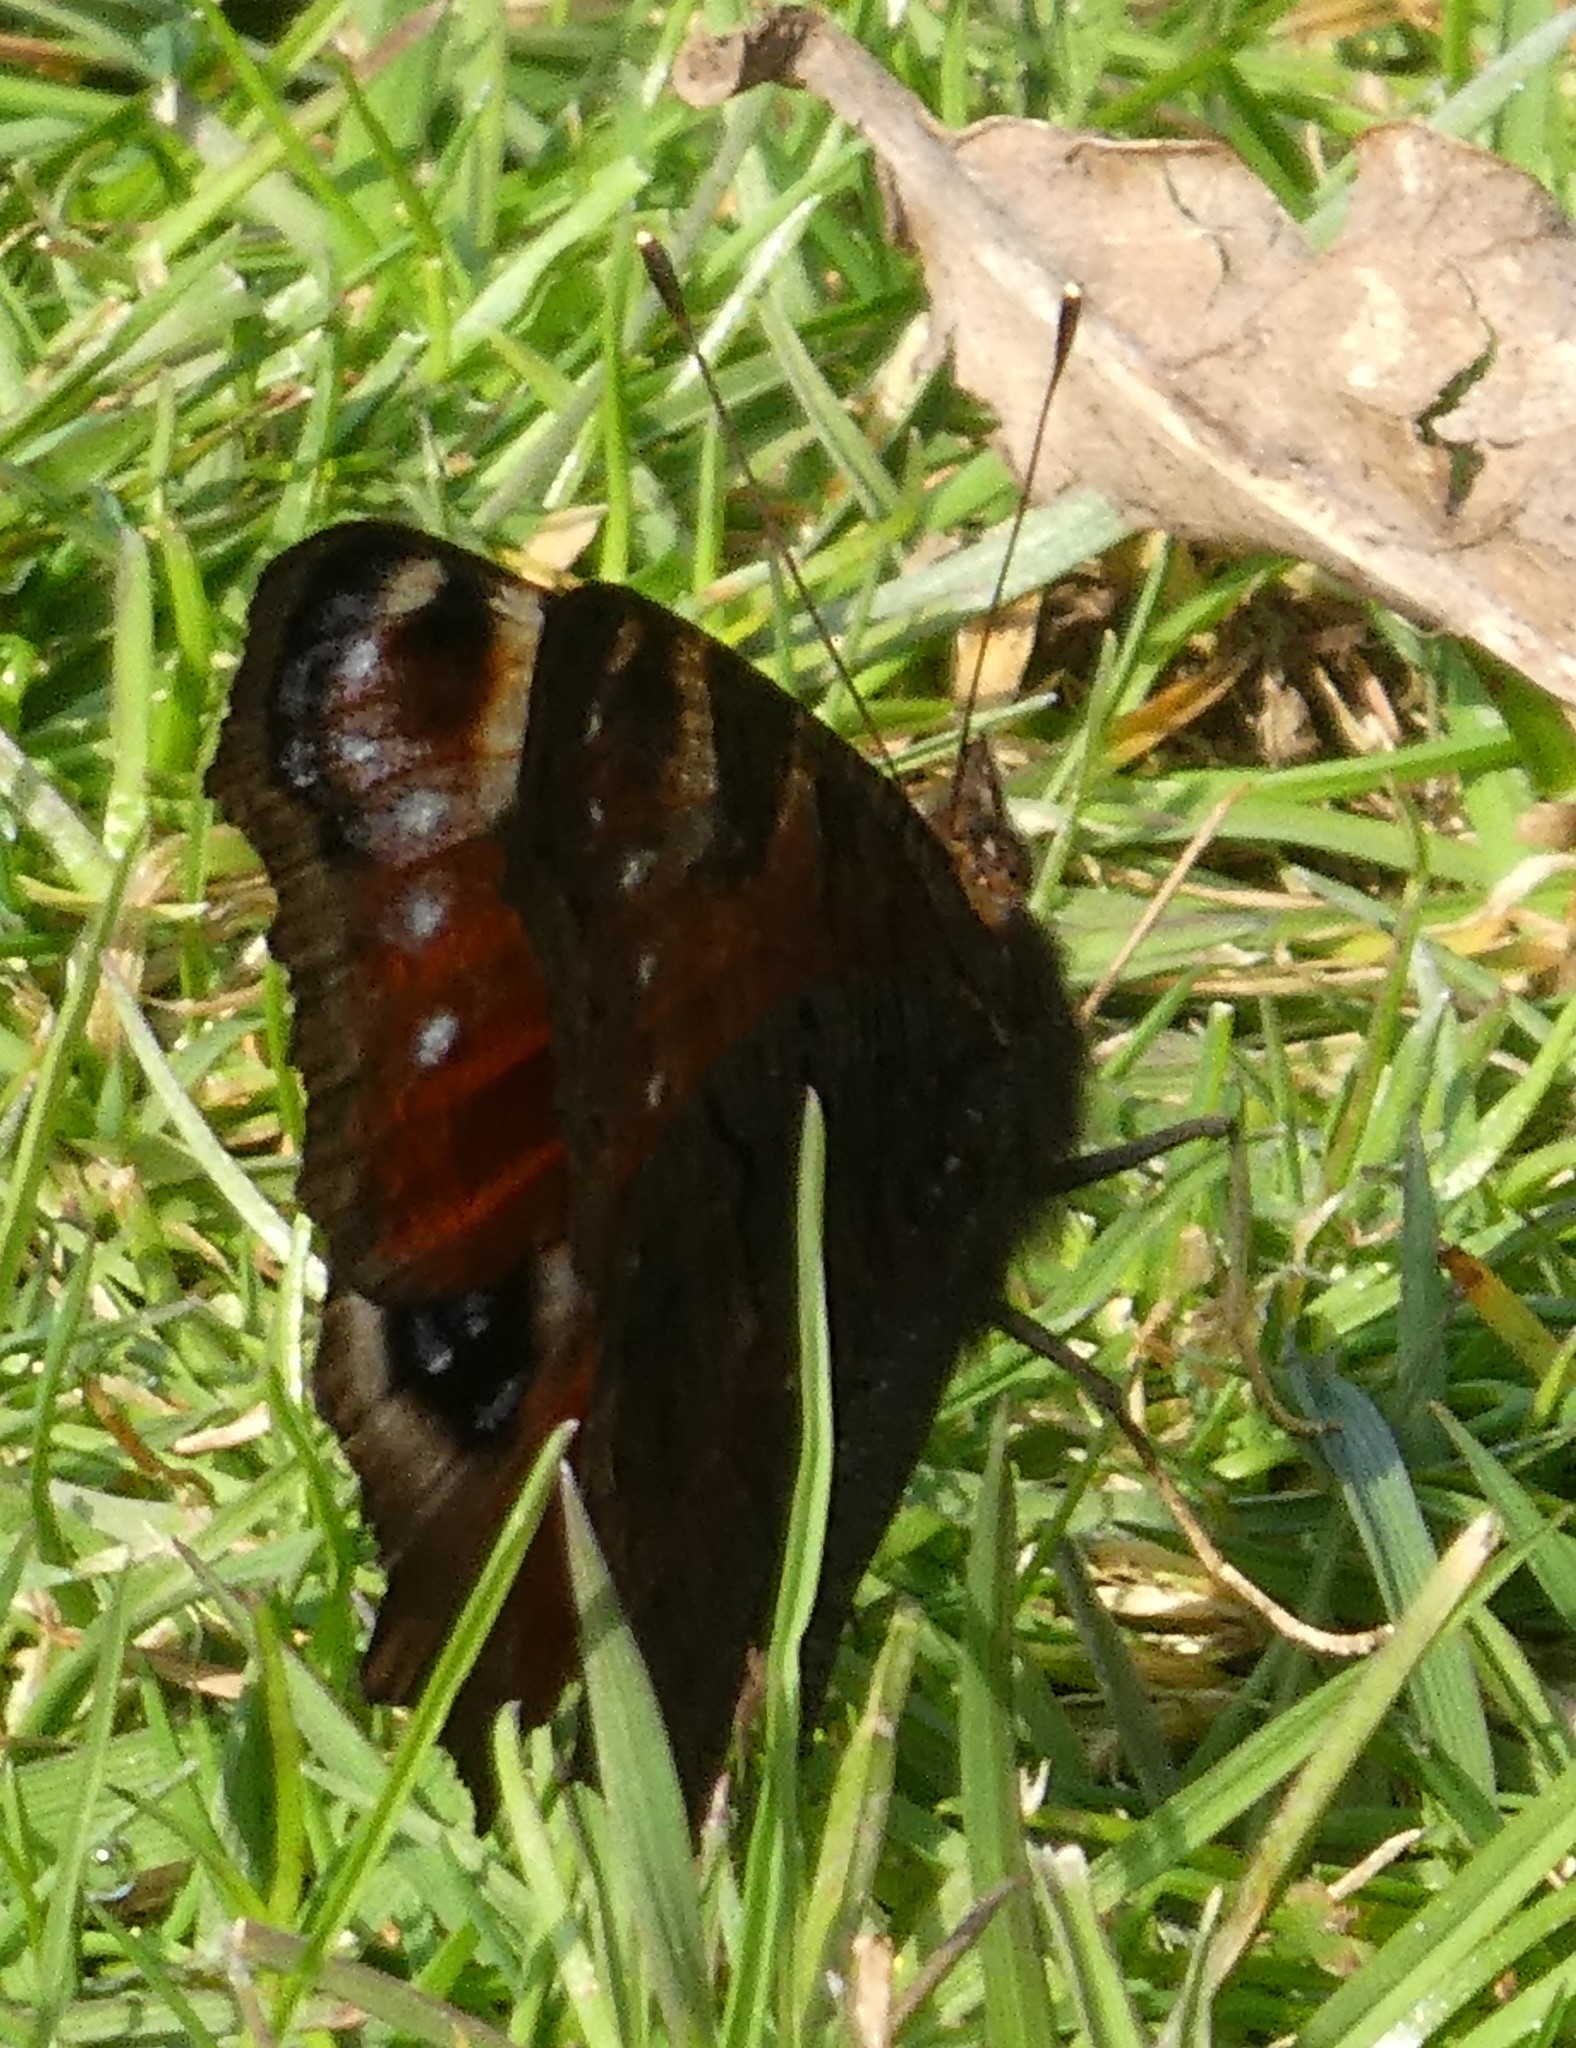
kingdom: Animalia
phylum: Arthropoda
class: Insecta
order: Lepidoptera
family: Nymphalidae
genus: Aglais
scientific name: Aglais io
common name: Peacock
